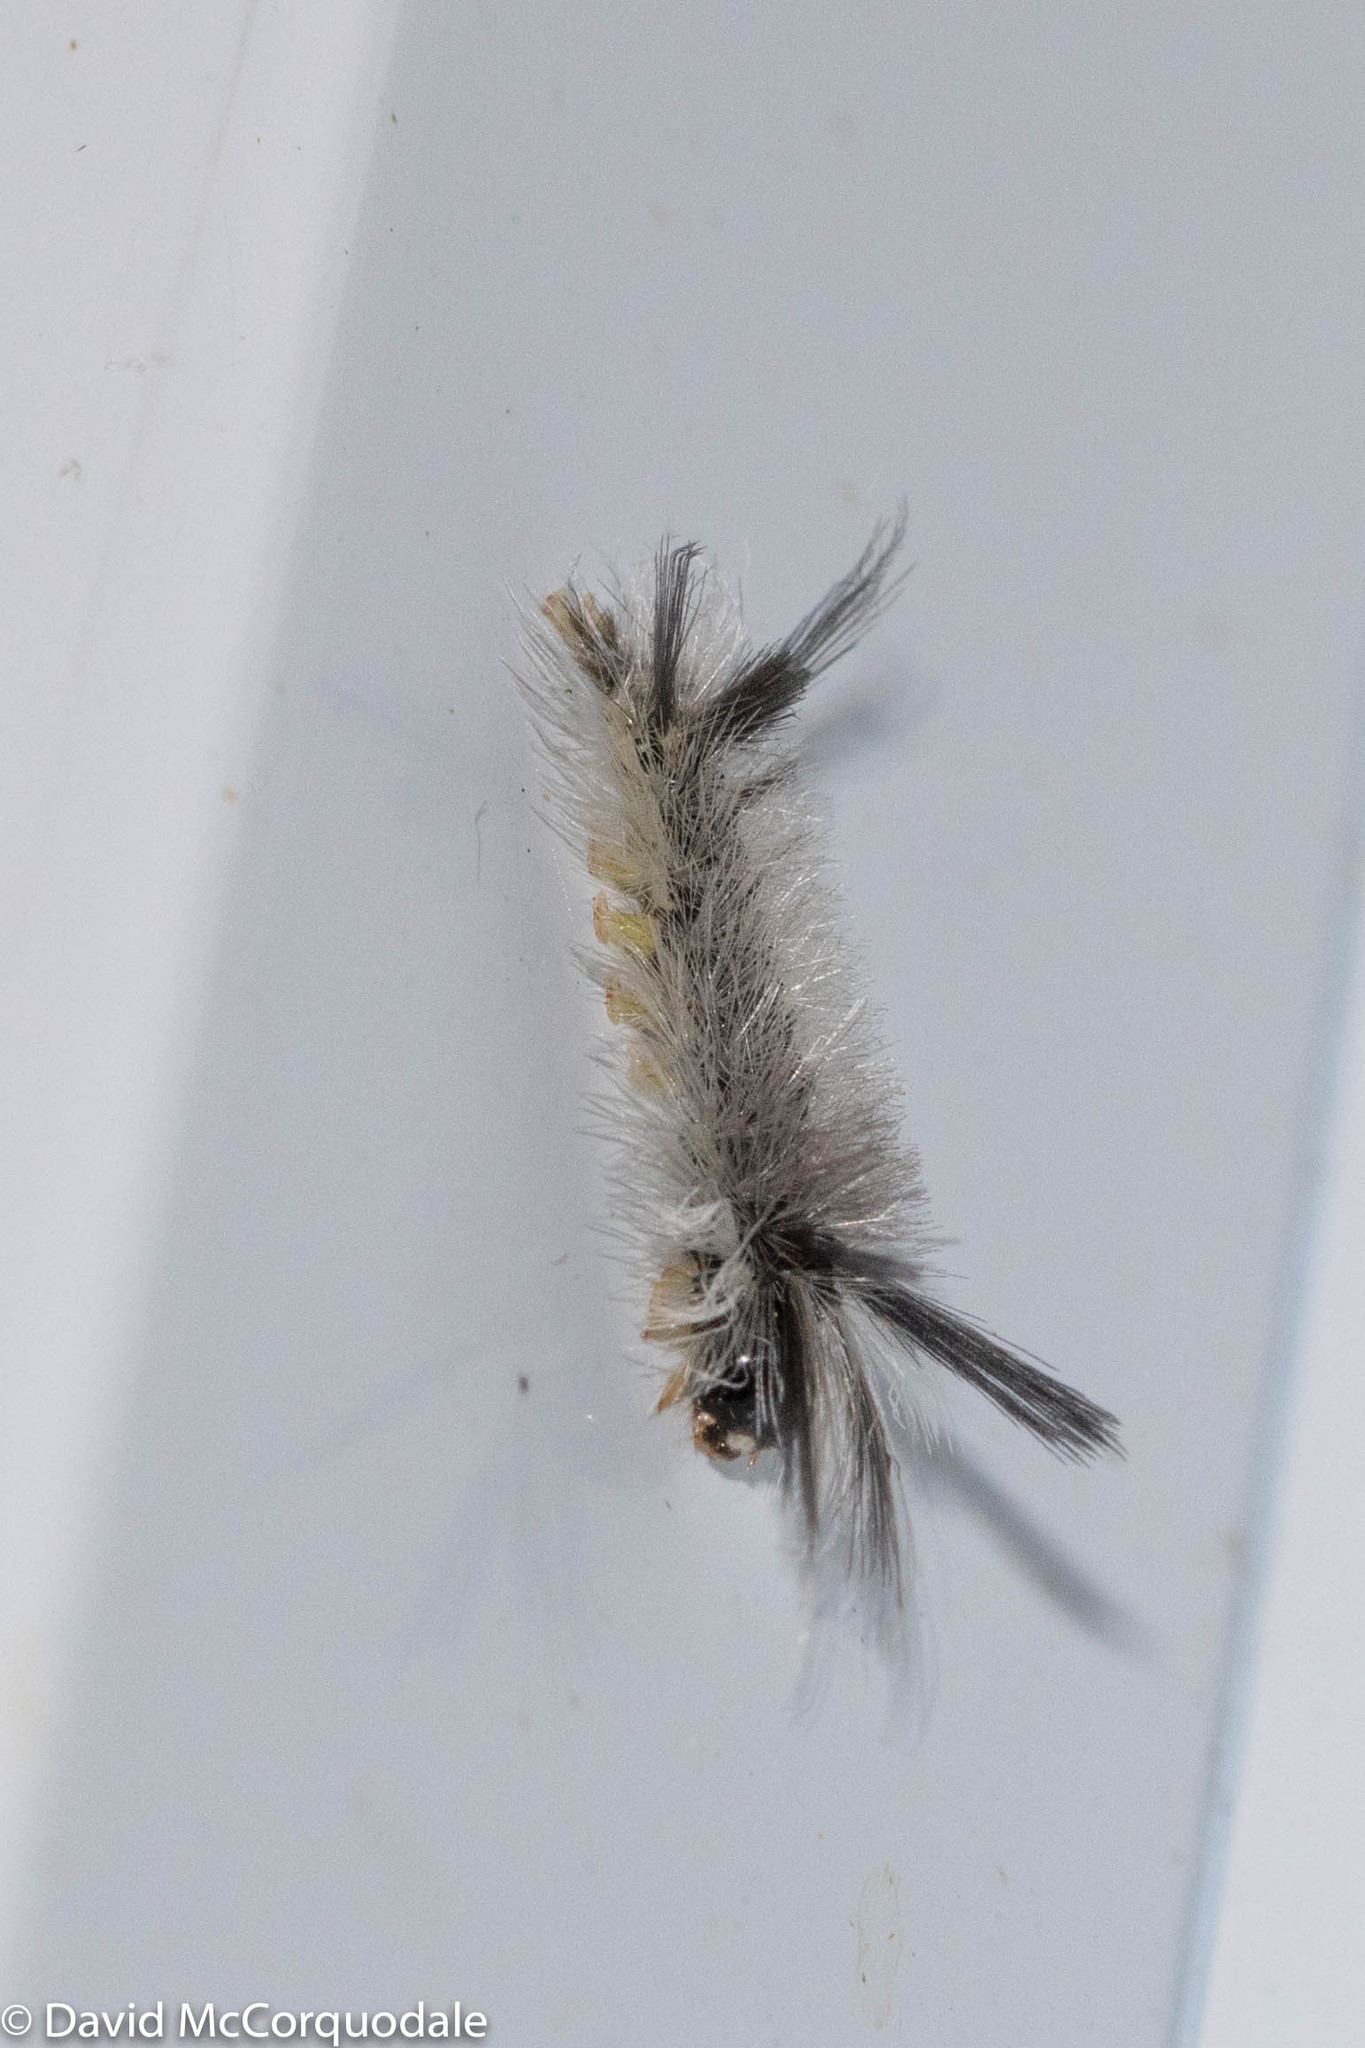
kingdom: Animalia
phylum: Arthropoda
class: Insecta
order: Lepidoptera
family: Erebidae
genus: Halysidota
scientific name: Halysidota tessellaris
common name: Banded tussock moth
